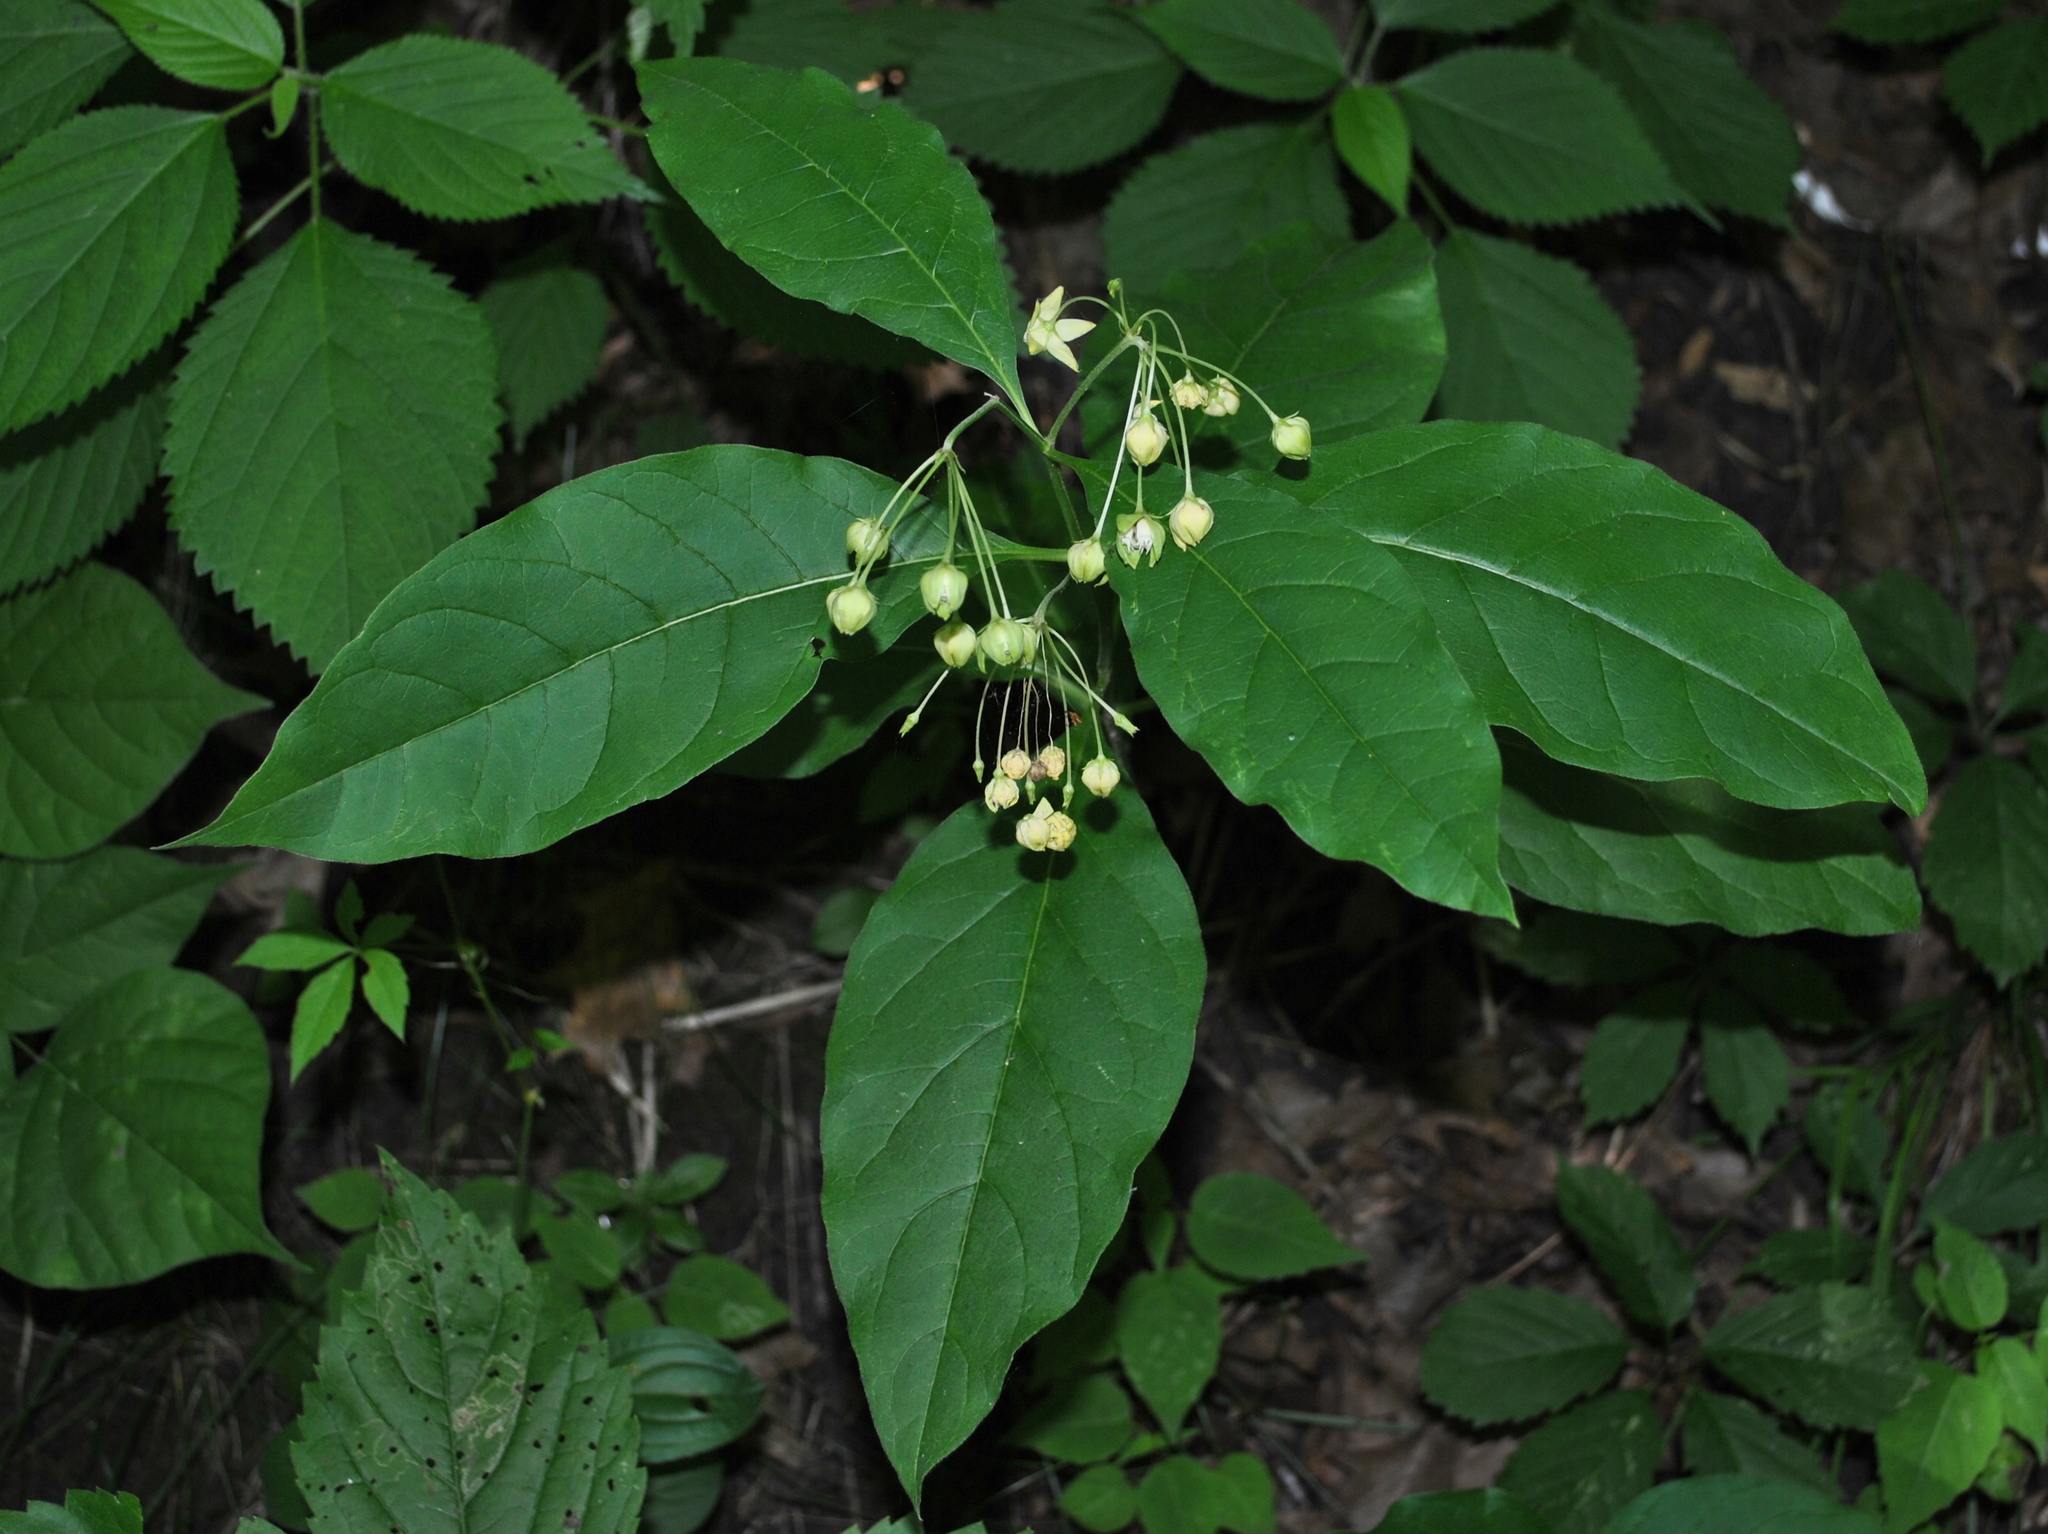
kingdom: Plantae
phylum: Tracheophyta
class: Magnoliopsida
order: Gentianales
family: Apocynaceae
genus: Asclepias
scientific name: Asclepias exaltata
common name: Poke milkweed
